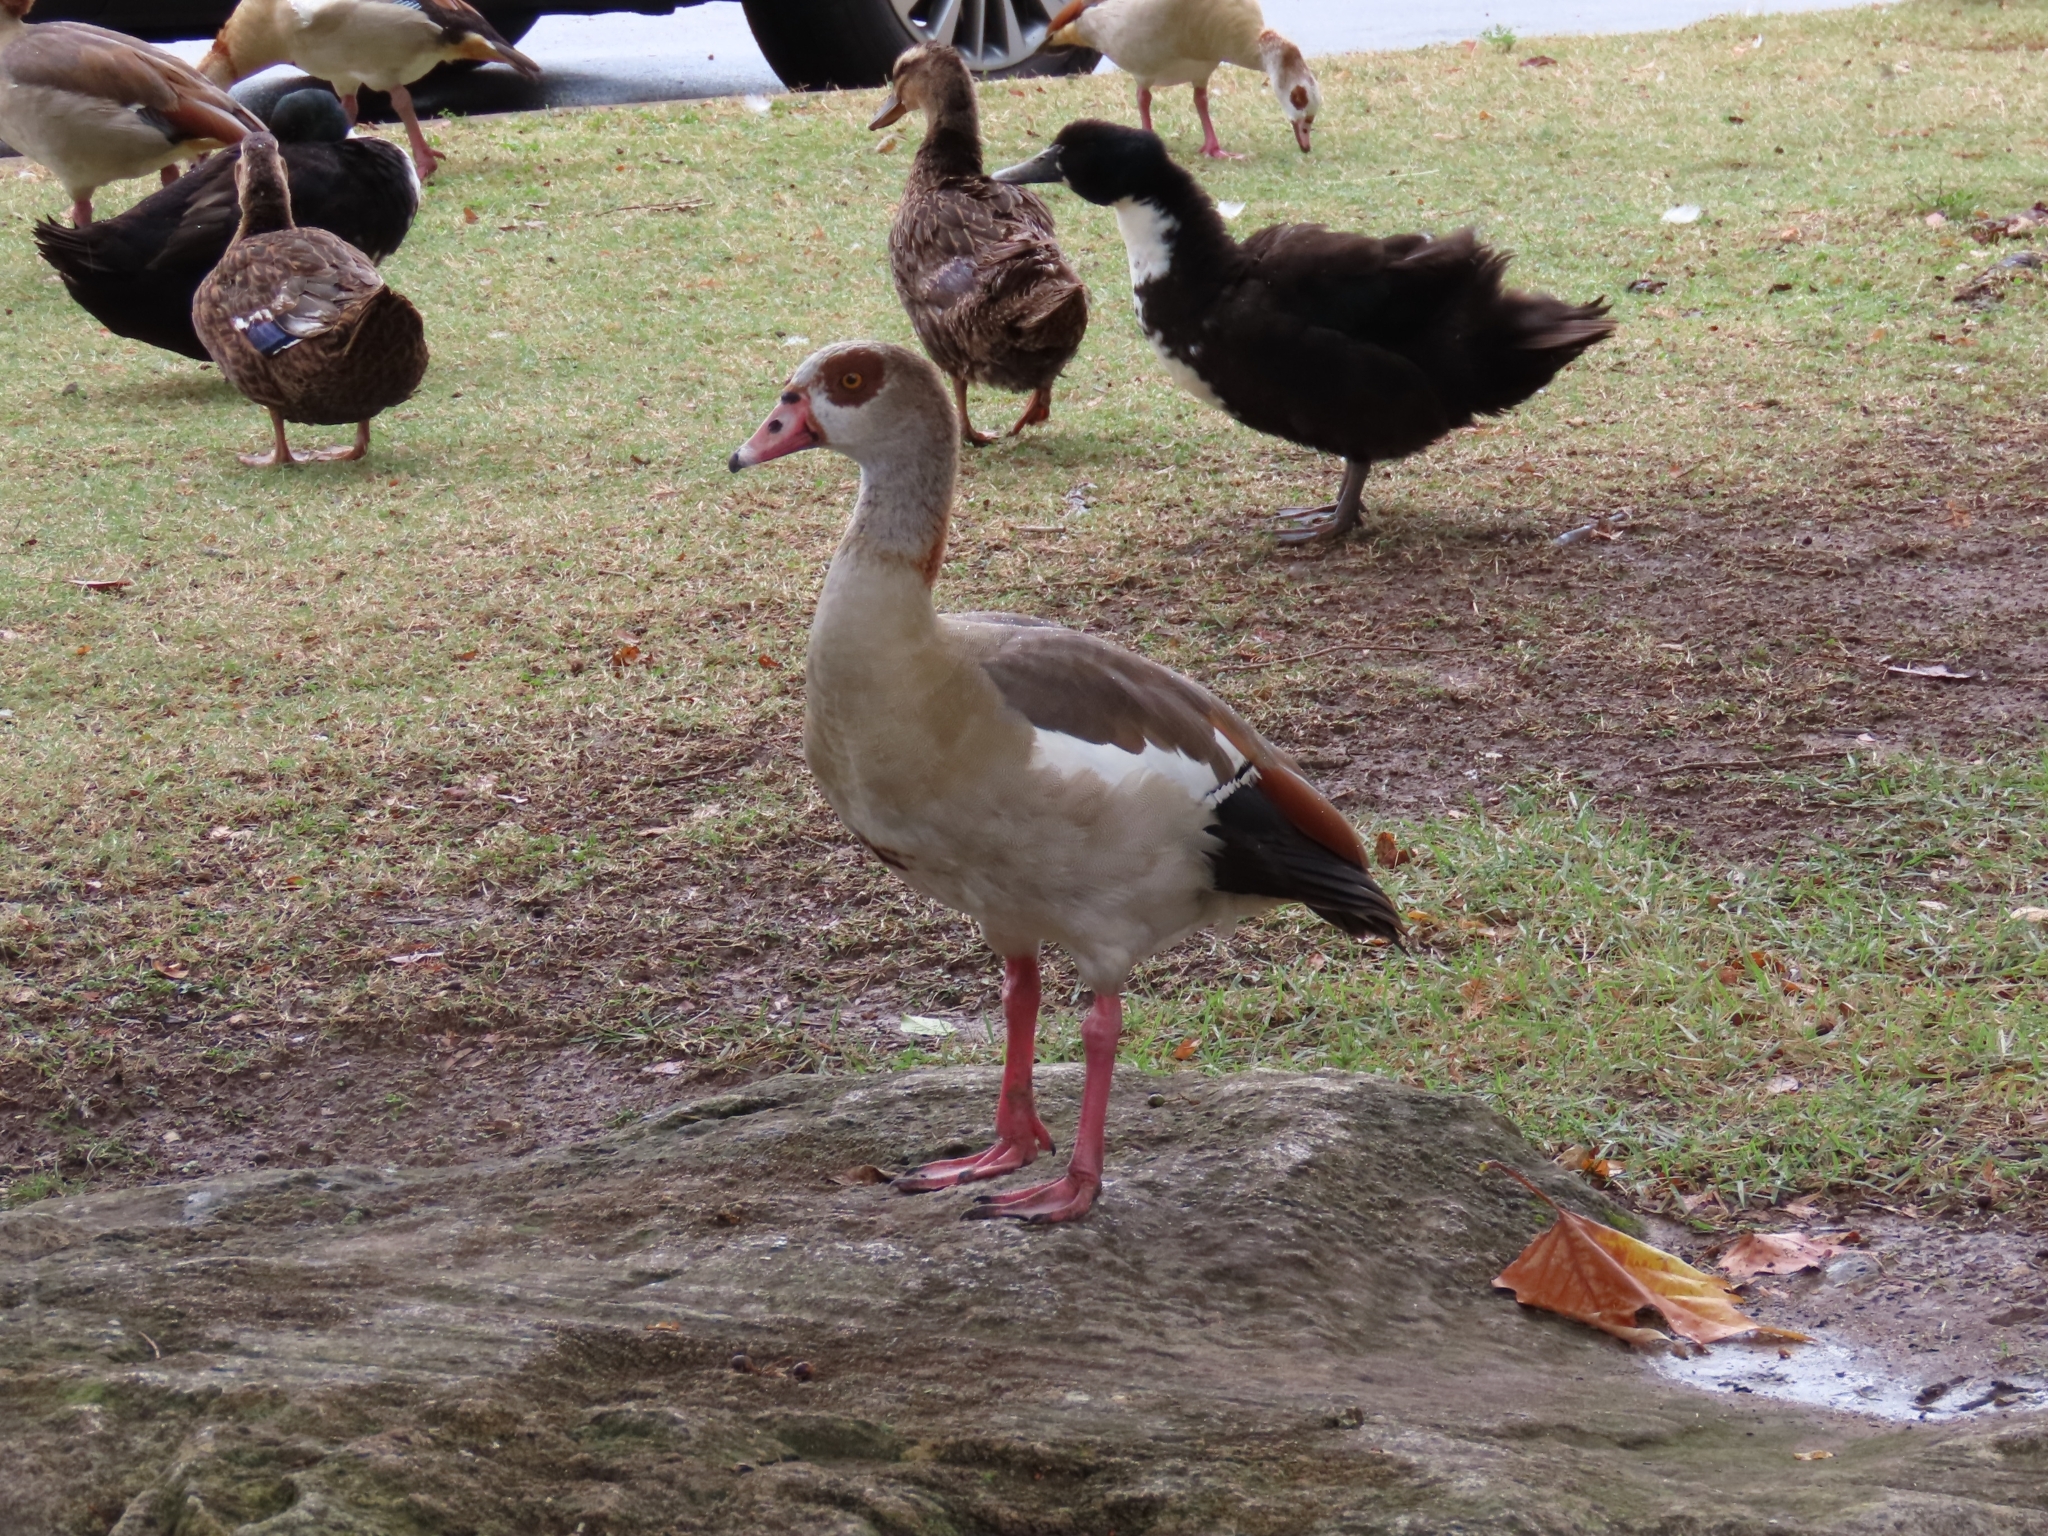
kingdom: Animalia
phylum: Chordata
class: Aves
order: Anseriformes
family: Anatidae
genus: Alopochen
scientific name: Alopochen aegyptiaca
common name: Egyptian goose
